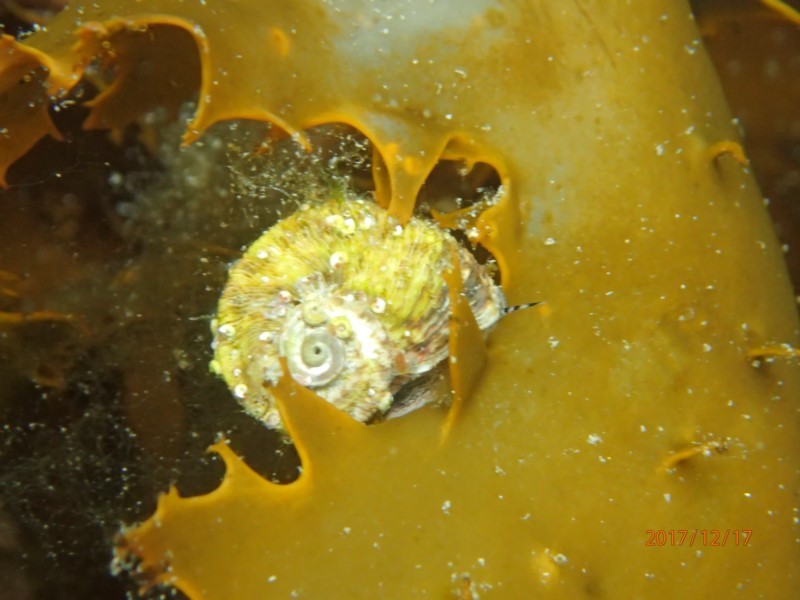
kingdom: Animalia
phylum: Mollusca
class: Gastropoda
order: Trochida
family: Turbinidae
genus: Lunella
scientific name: Lunella torquata
